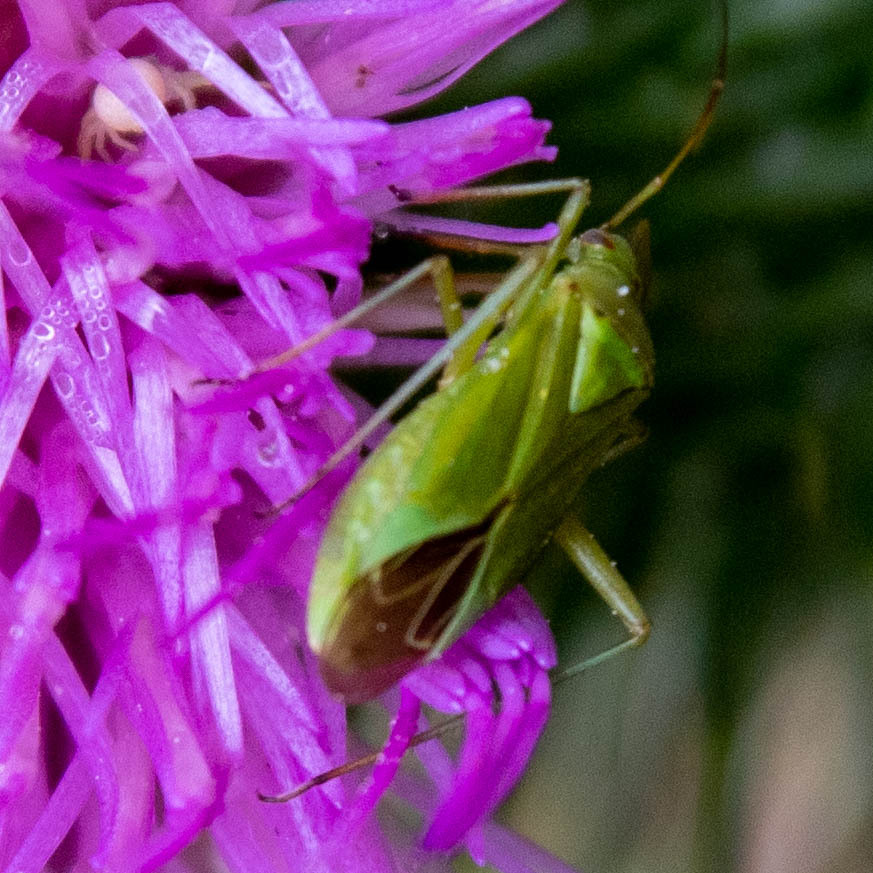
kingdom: Animalia
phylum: Arthropoda
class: Insecta
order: Hemiptera
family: Miridae
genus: Calocoris
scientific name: Calocoris affinis
